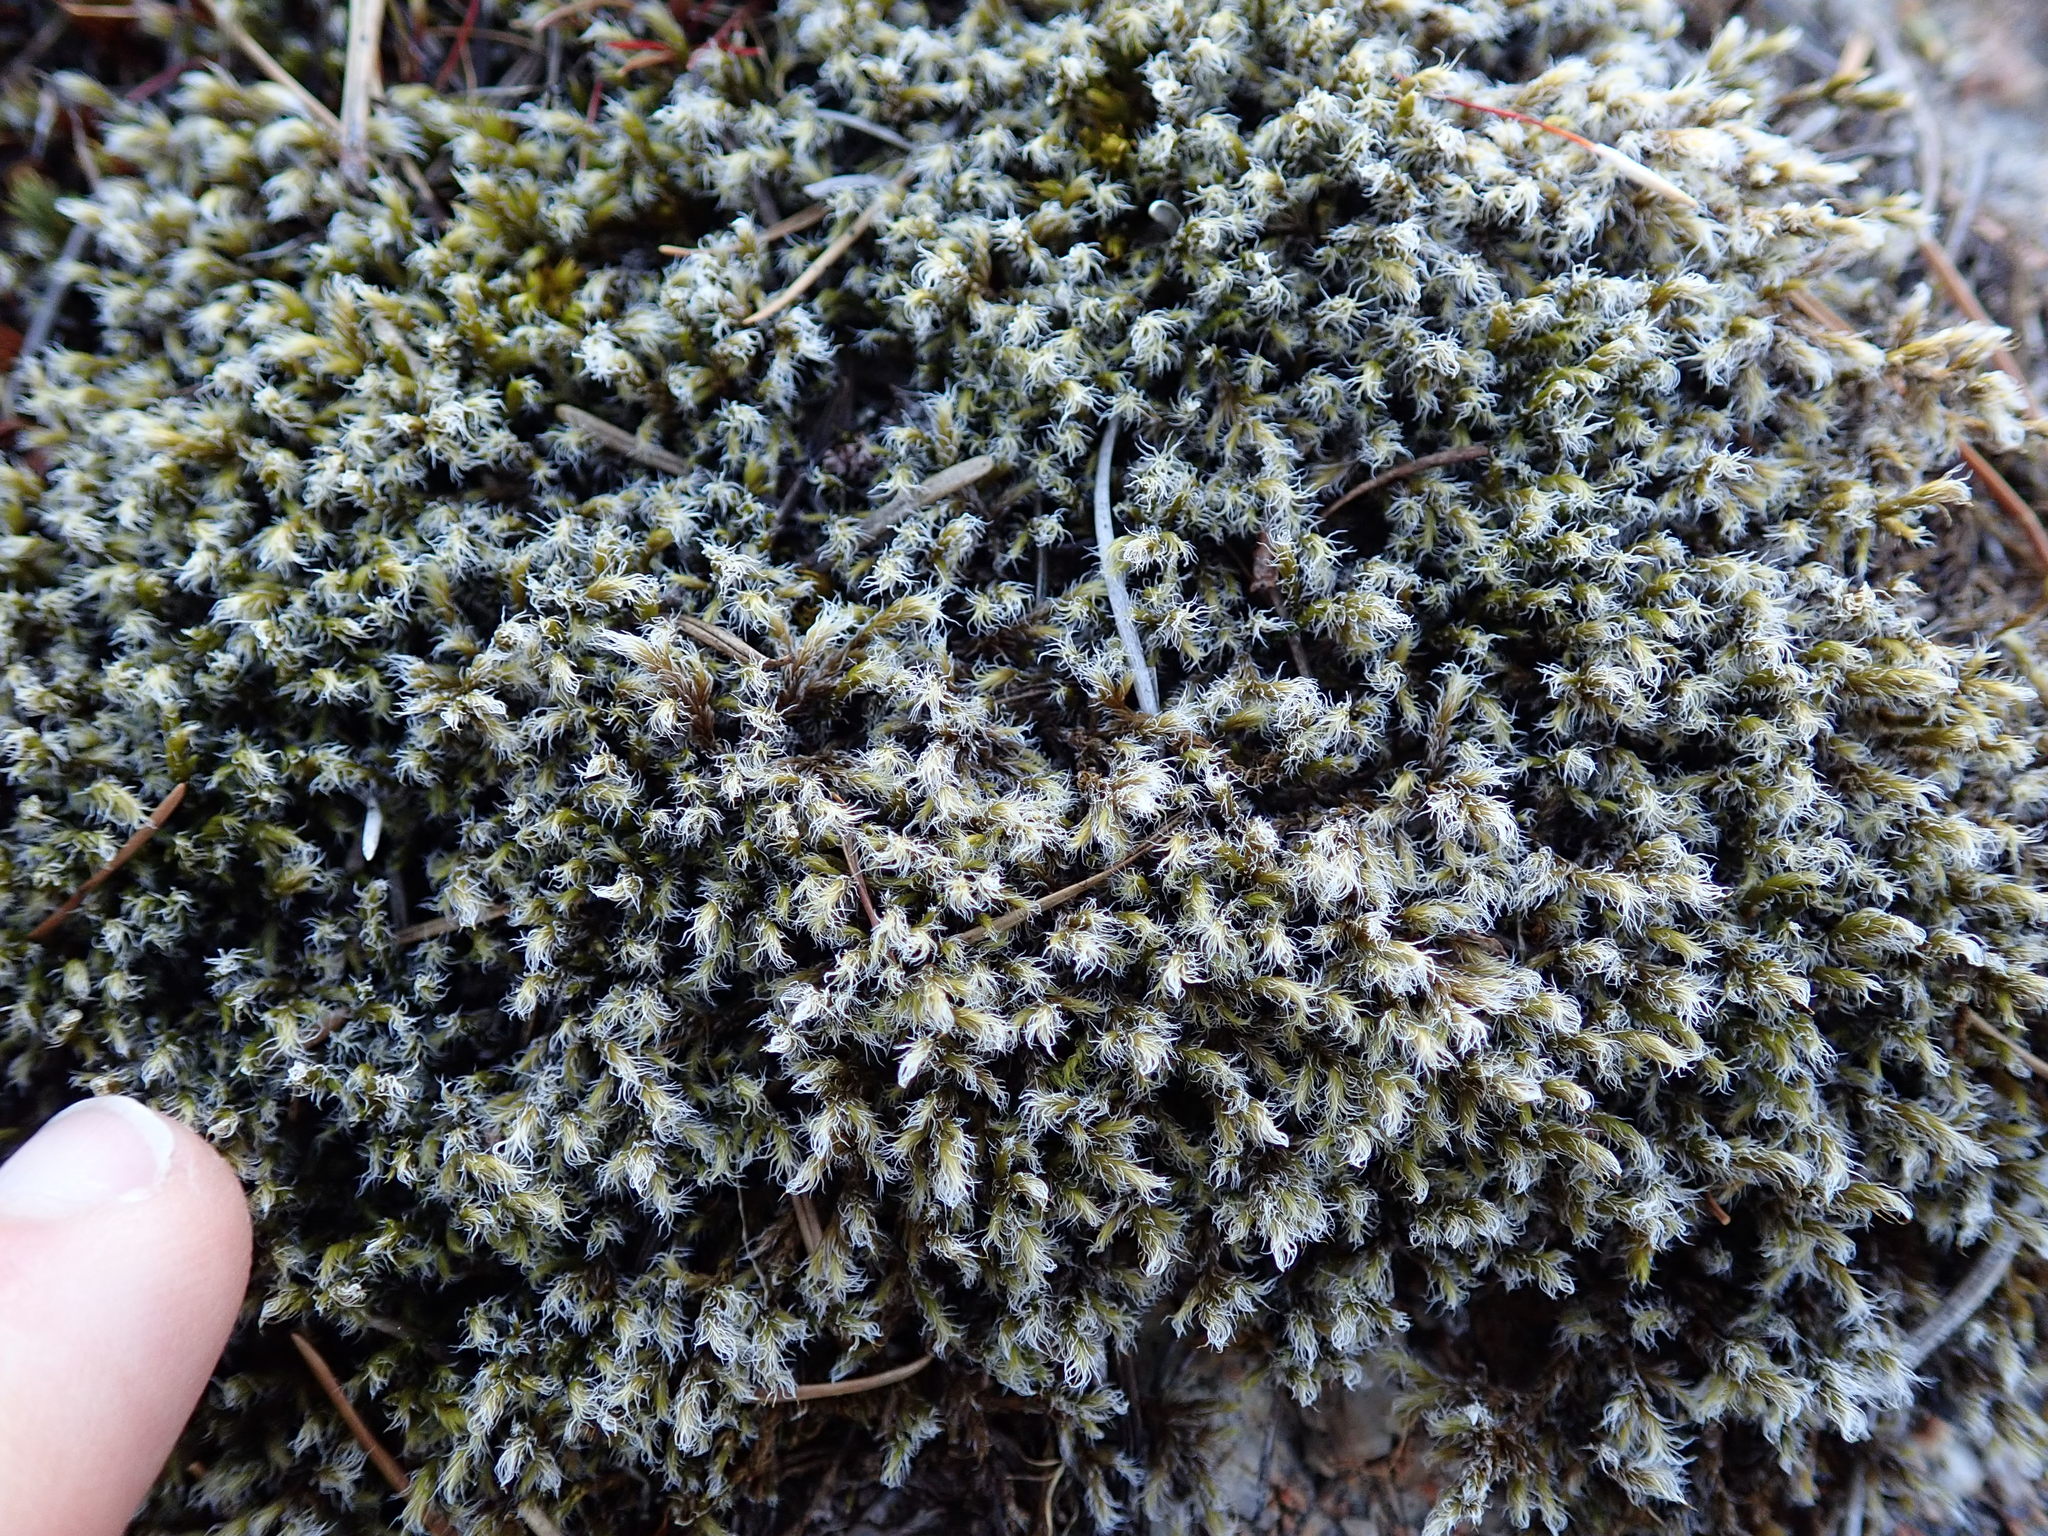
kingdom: Plantae
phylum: Bryophyta
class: Bryopsida
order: Grimmiales
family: Grimmiaceae
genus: Racomitrium
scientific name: Racomitrium lanuginosum
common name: Hoary rock moss
